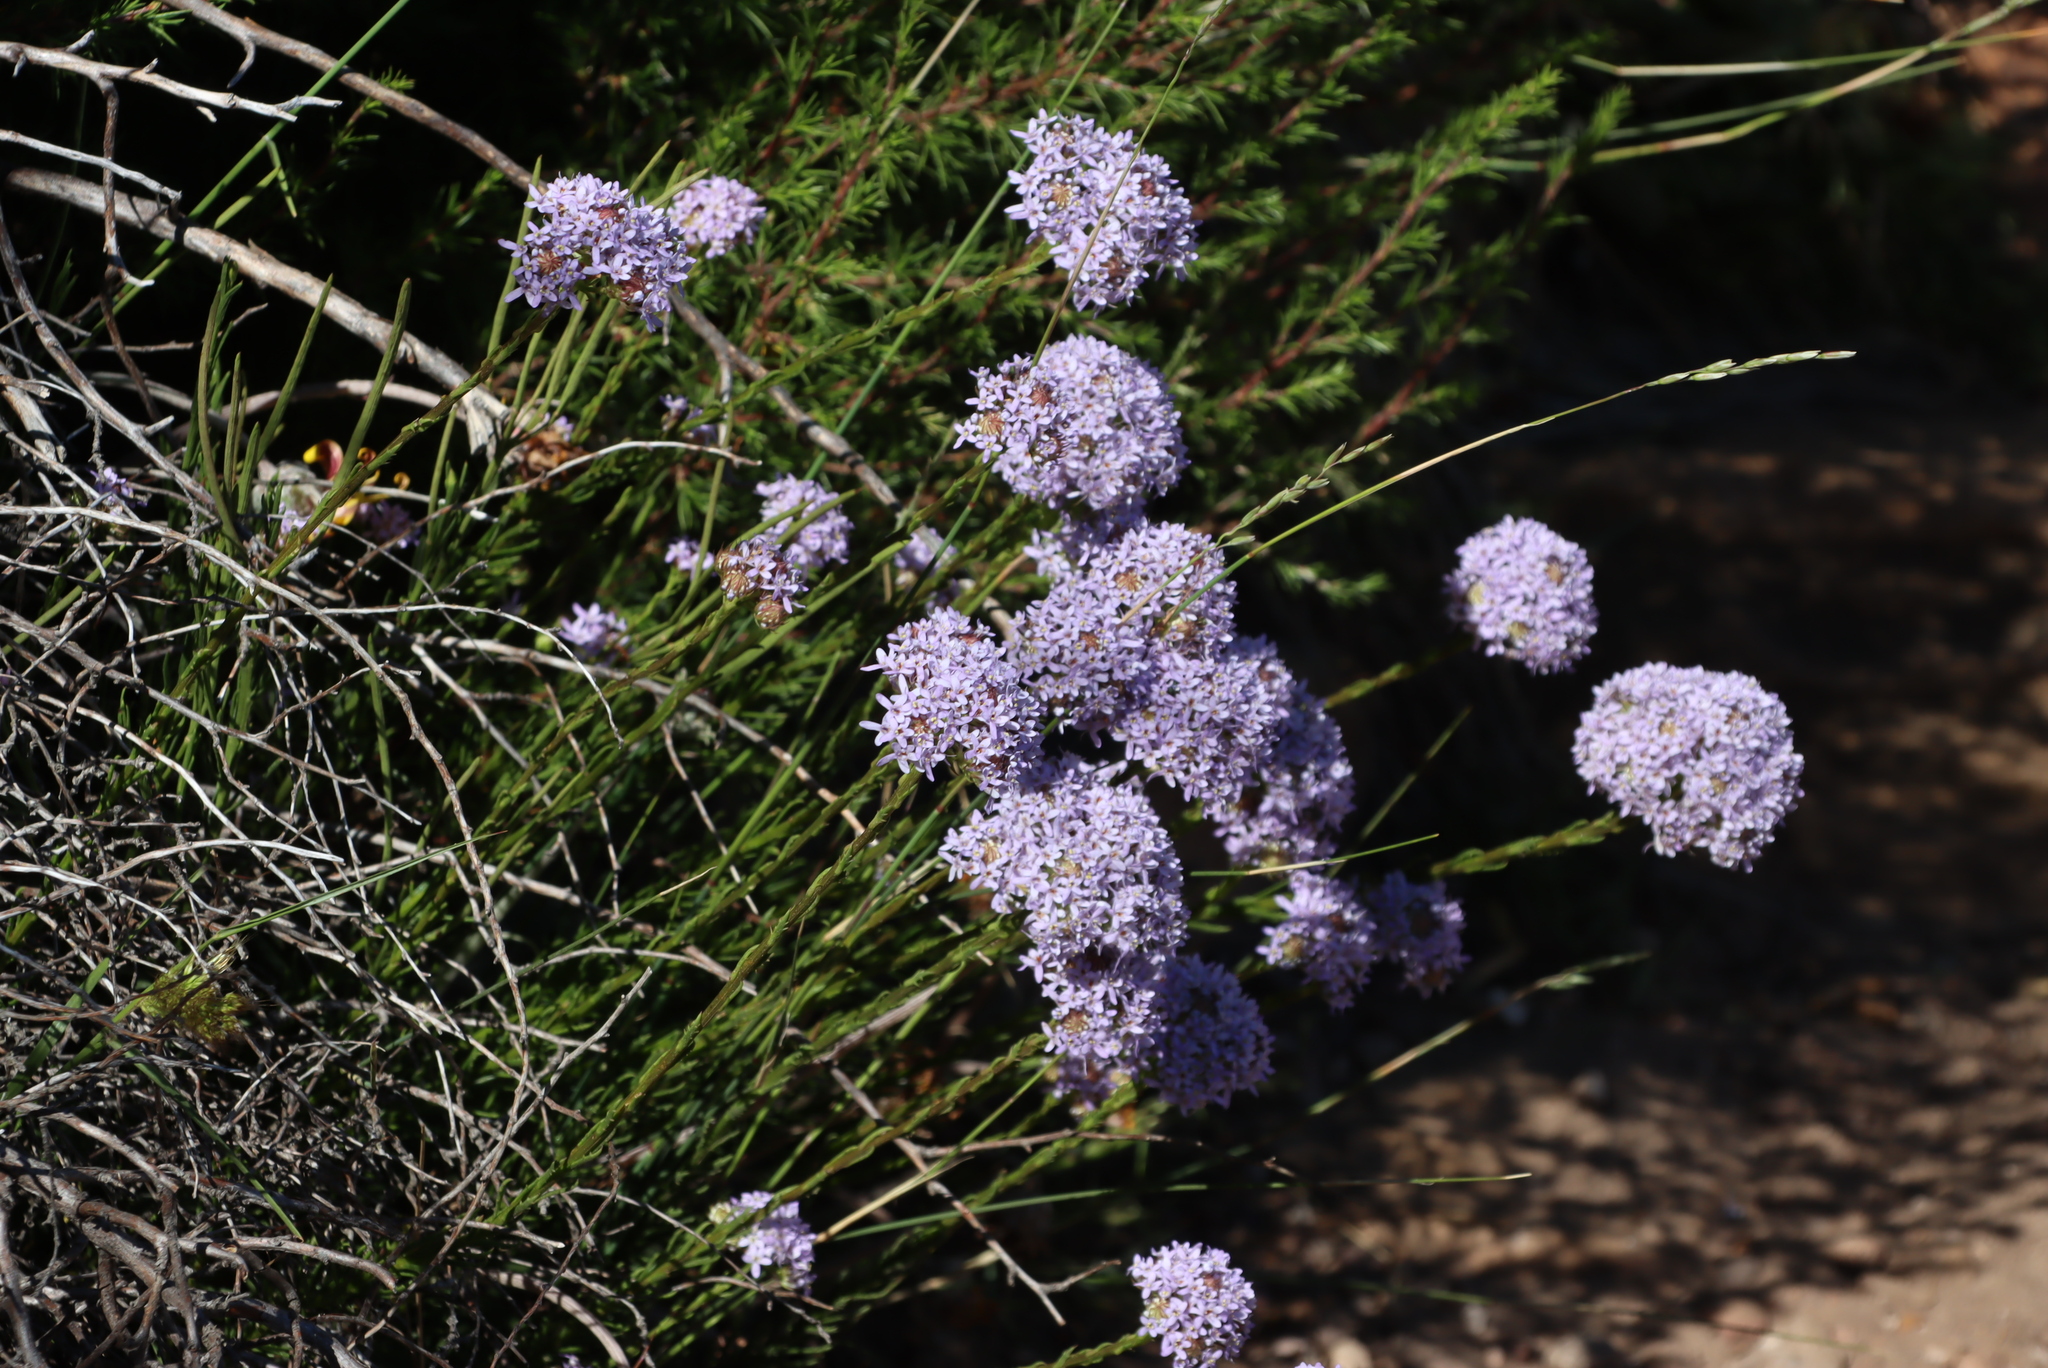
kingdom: Plantae
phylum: Tracheophyta
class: Magnoliopsida
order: Lamiales
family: Scrophulariaceae
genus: Pseudoselago
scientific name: Pseudoselago spuria
